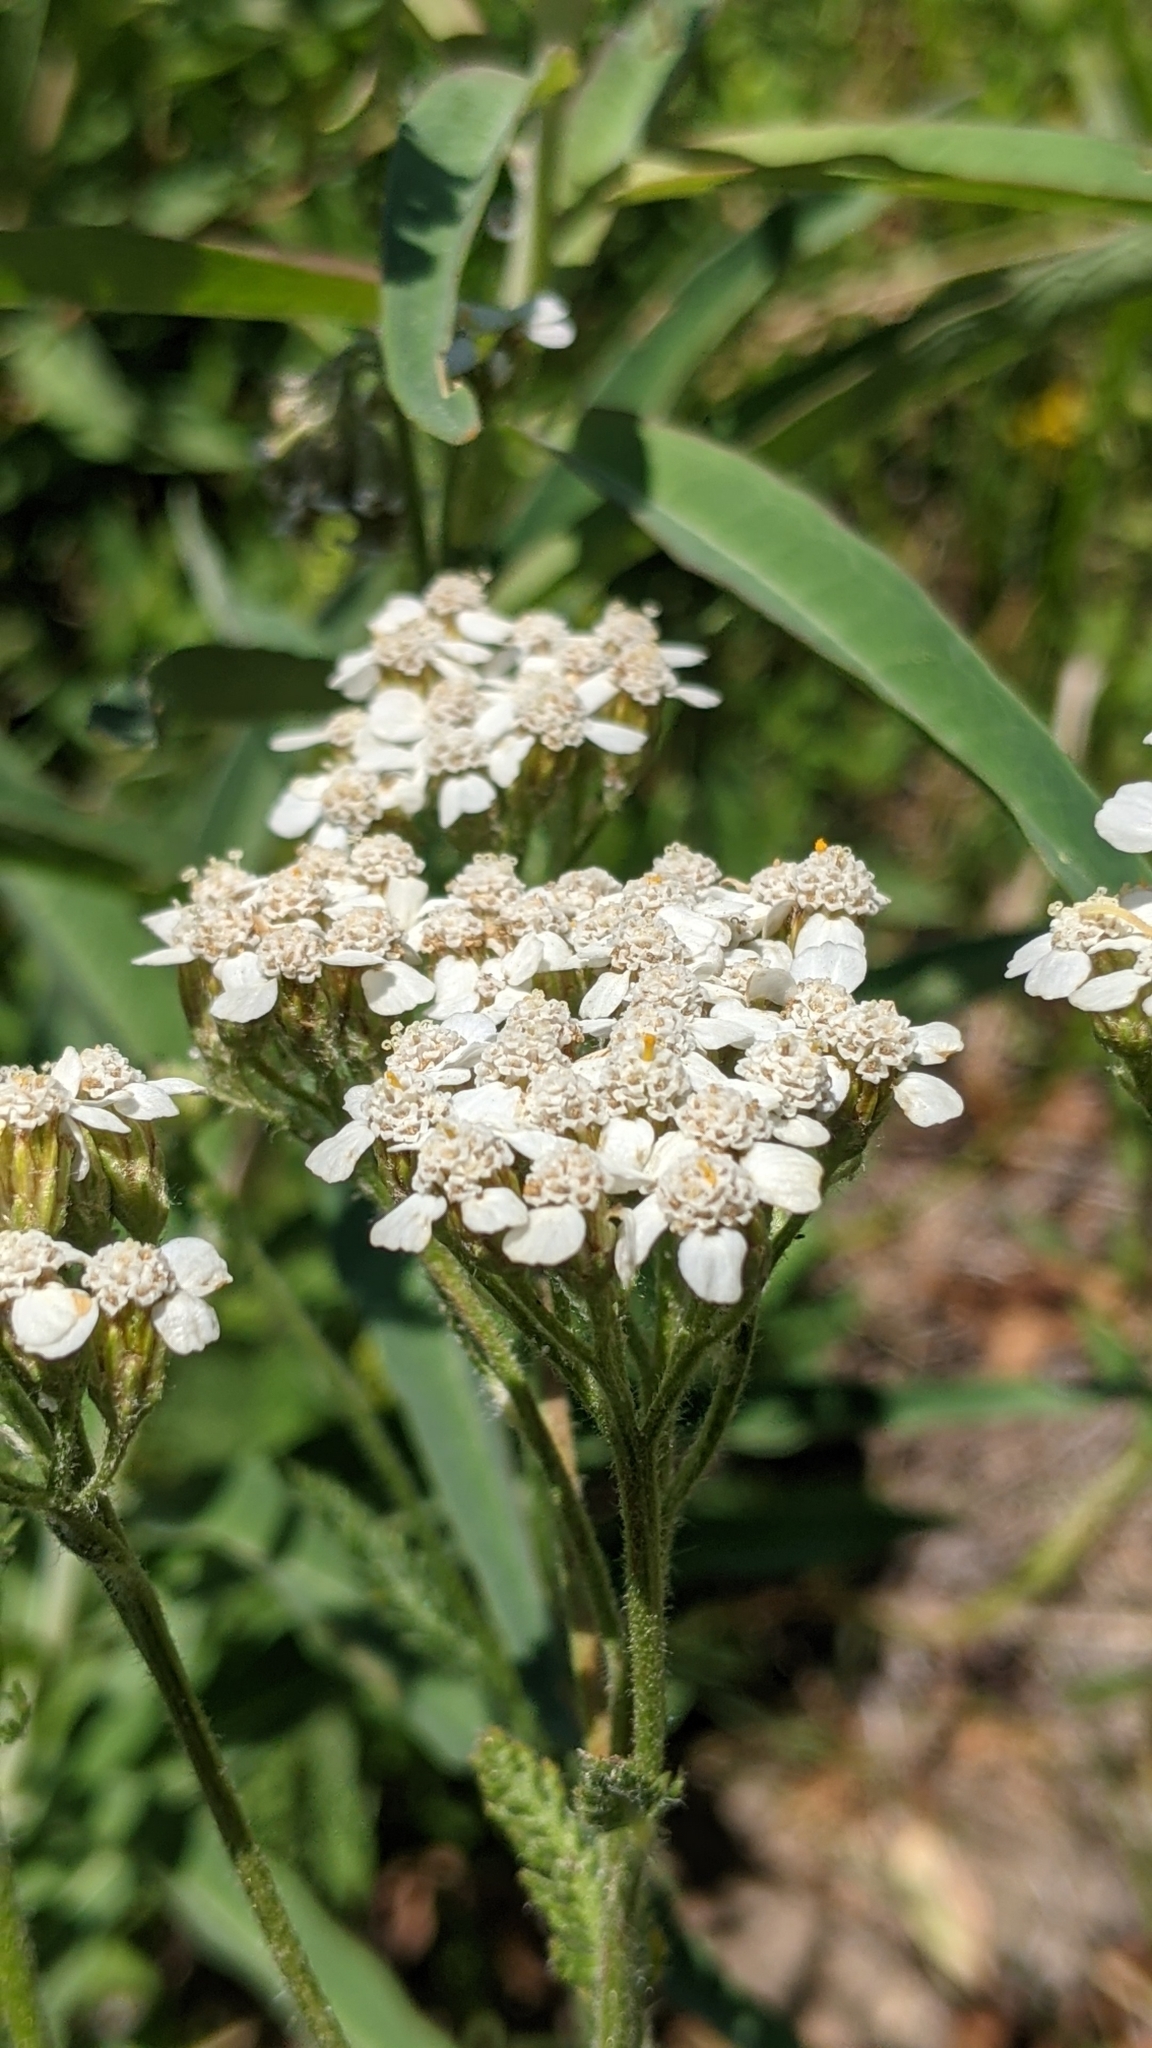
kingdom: Plantae
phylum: Tracheophyta
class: Magnoliopsida
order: Asterales
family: Asteraceae
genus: Achillea
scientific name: Achillea millefolium
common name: Yarrow
